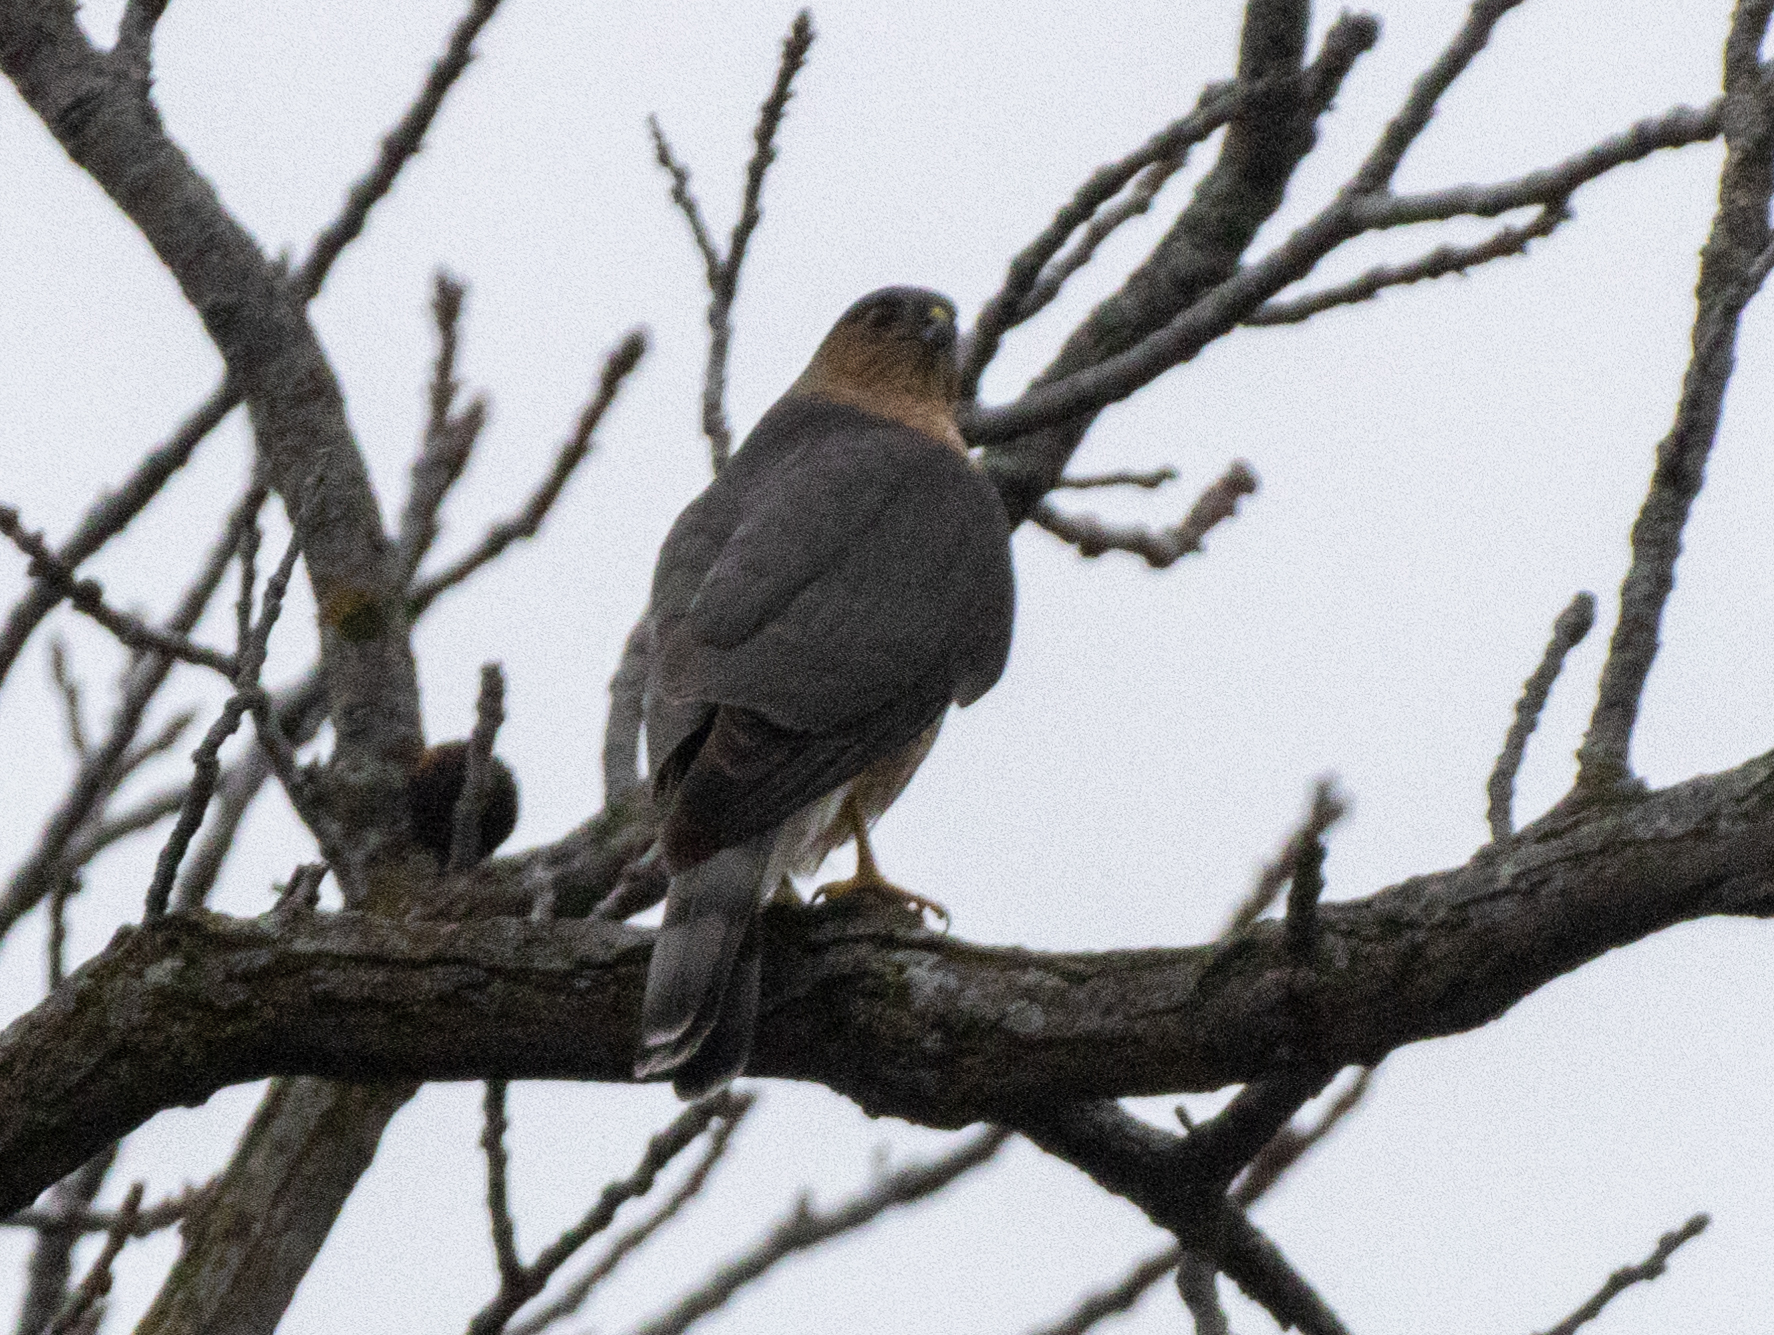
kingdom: Animalia
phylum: Chordata
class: Aves
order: Accipitriformes
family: Accipitridae
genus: Accipiter
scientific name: Accipiter cooperii
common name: Cooper's hawk
